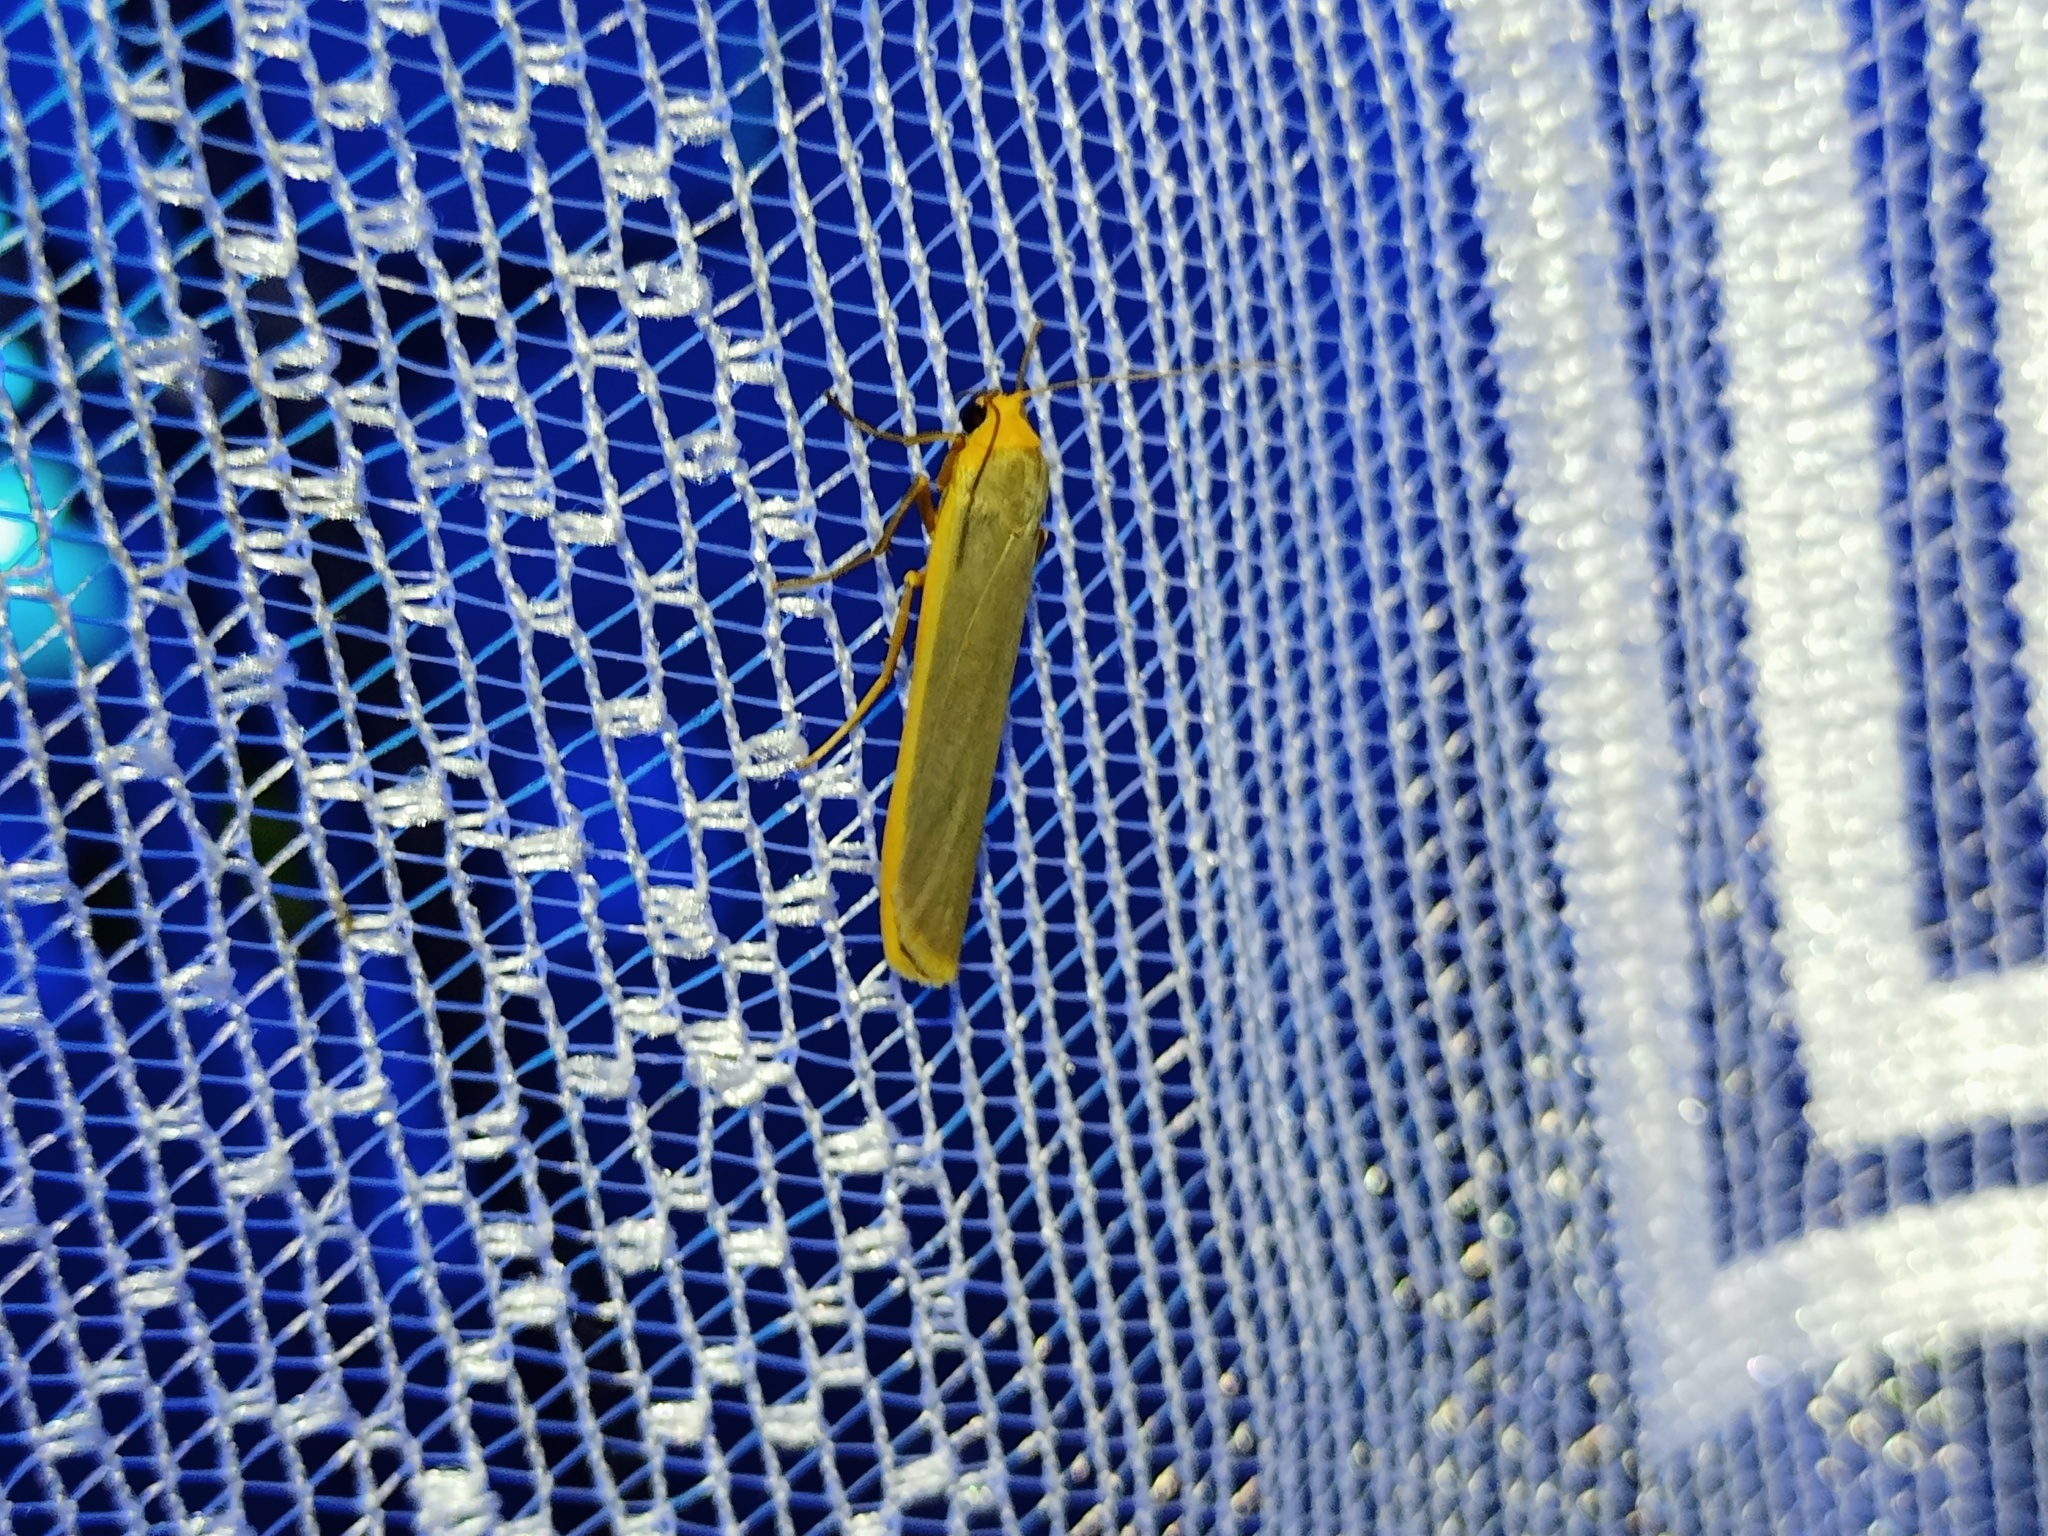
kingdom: Animalia
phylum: Arthropoda
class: Insecta
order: Lepidoptera
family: Erebidae
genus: Manulea
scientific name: Manulea complana
